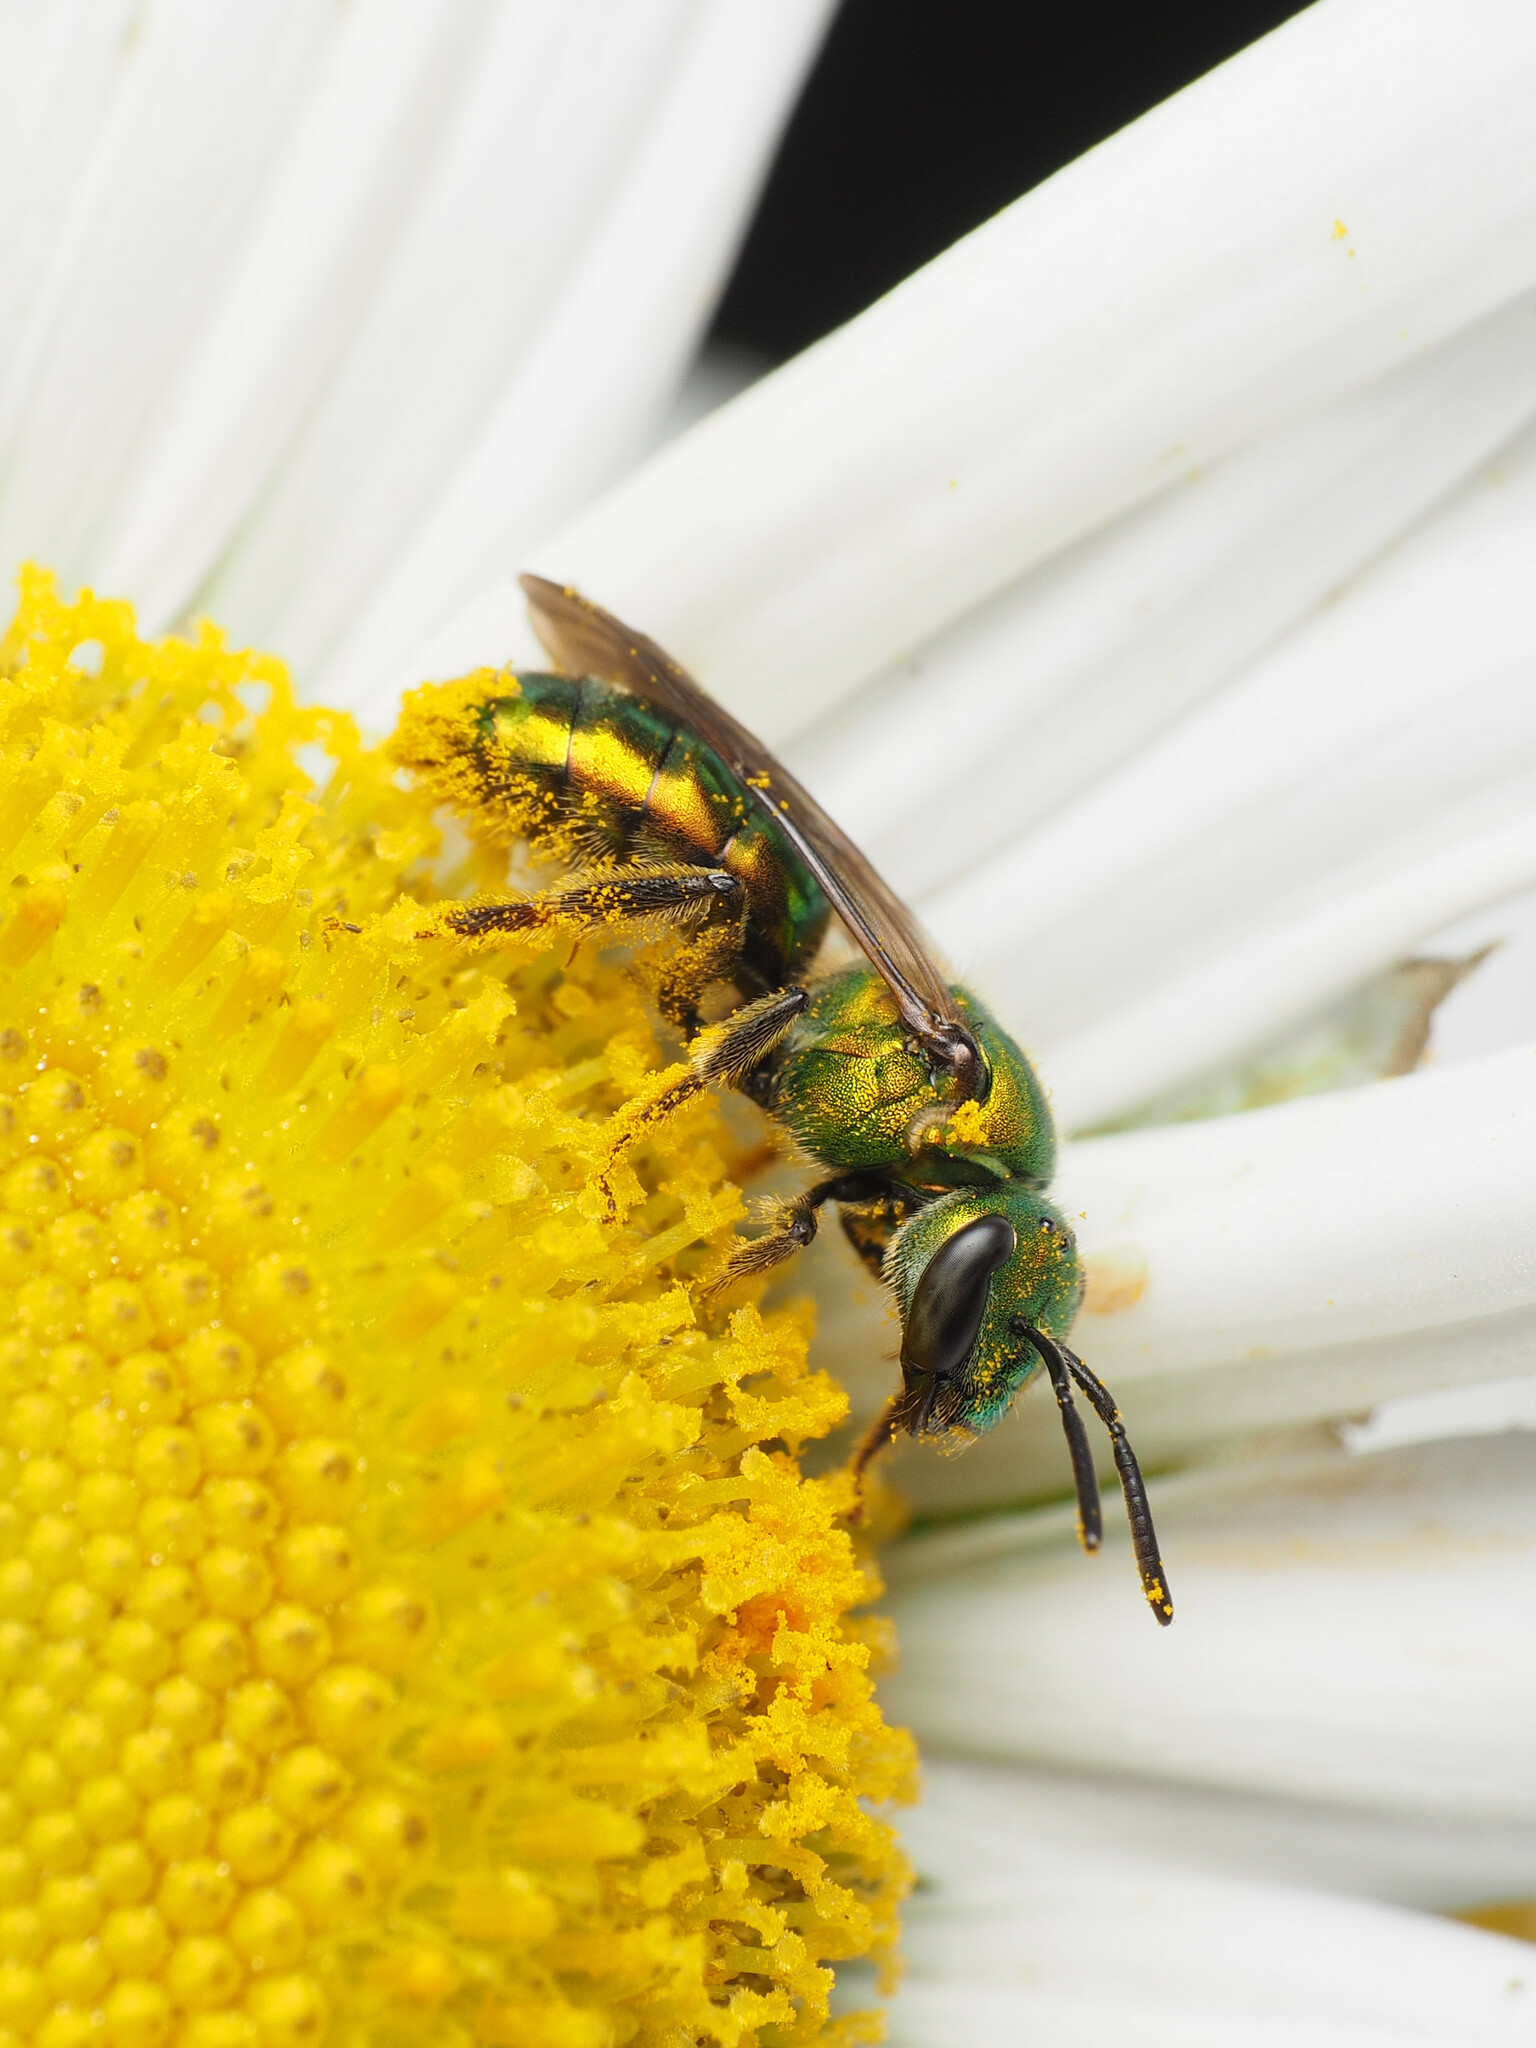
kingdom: Animalia
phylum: Arthropoda
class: Insecta
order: Hymenoptera
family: Halictidae
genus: Augochlora
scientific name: Augochlora pura
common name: Pure green sweat bee
